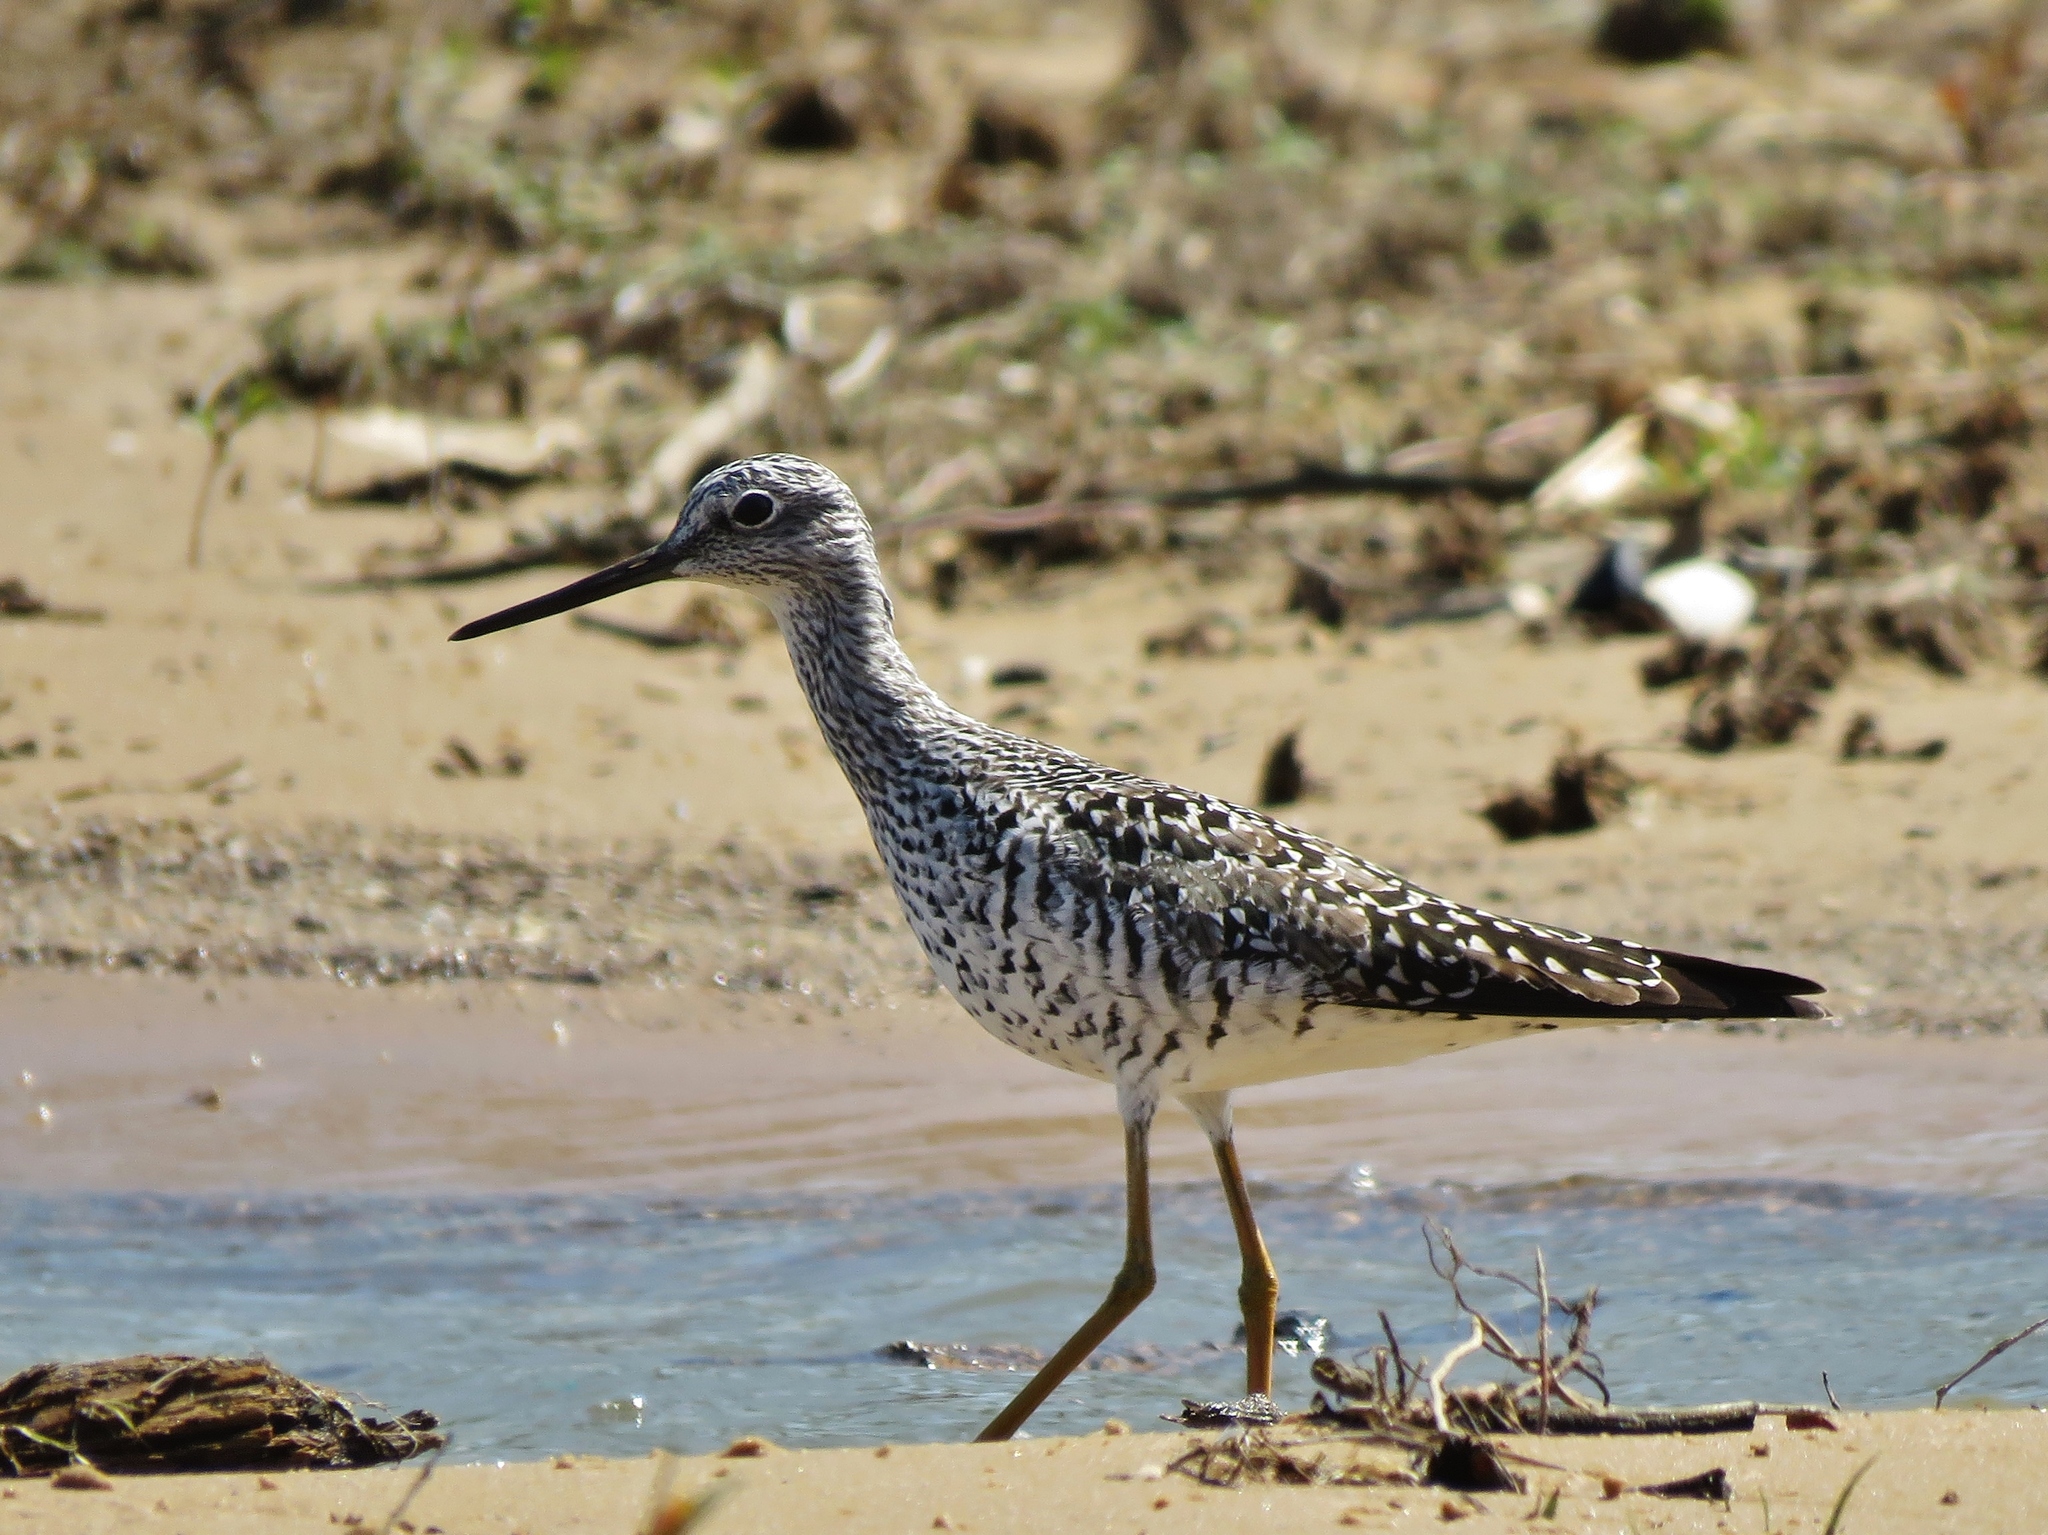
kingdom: Animalia
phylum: Chordata
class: Aves
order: Charadriiformes
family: Scolopacidae
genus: Tringa
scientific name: Tringa melanoleuca
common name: Greater yellowlegs
